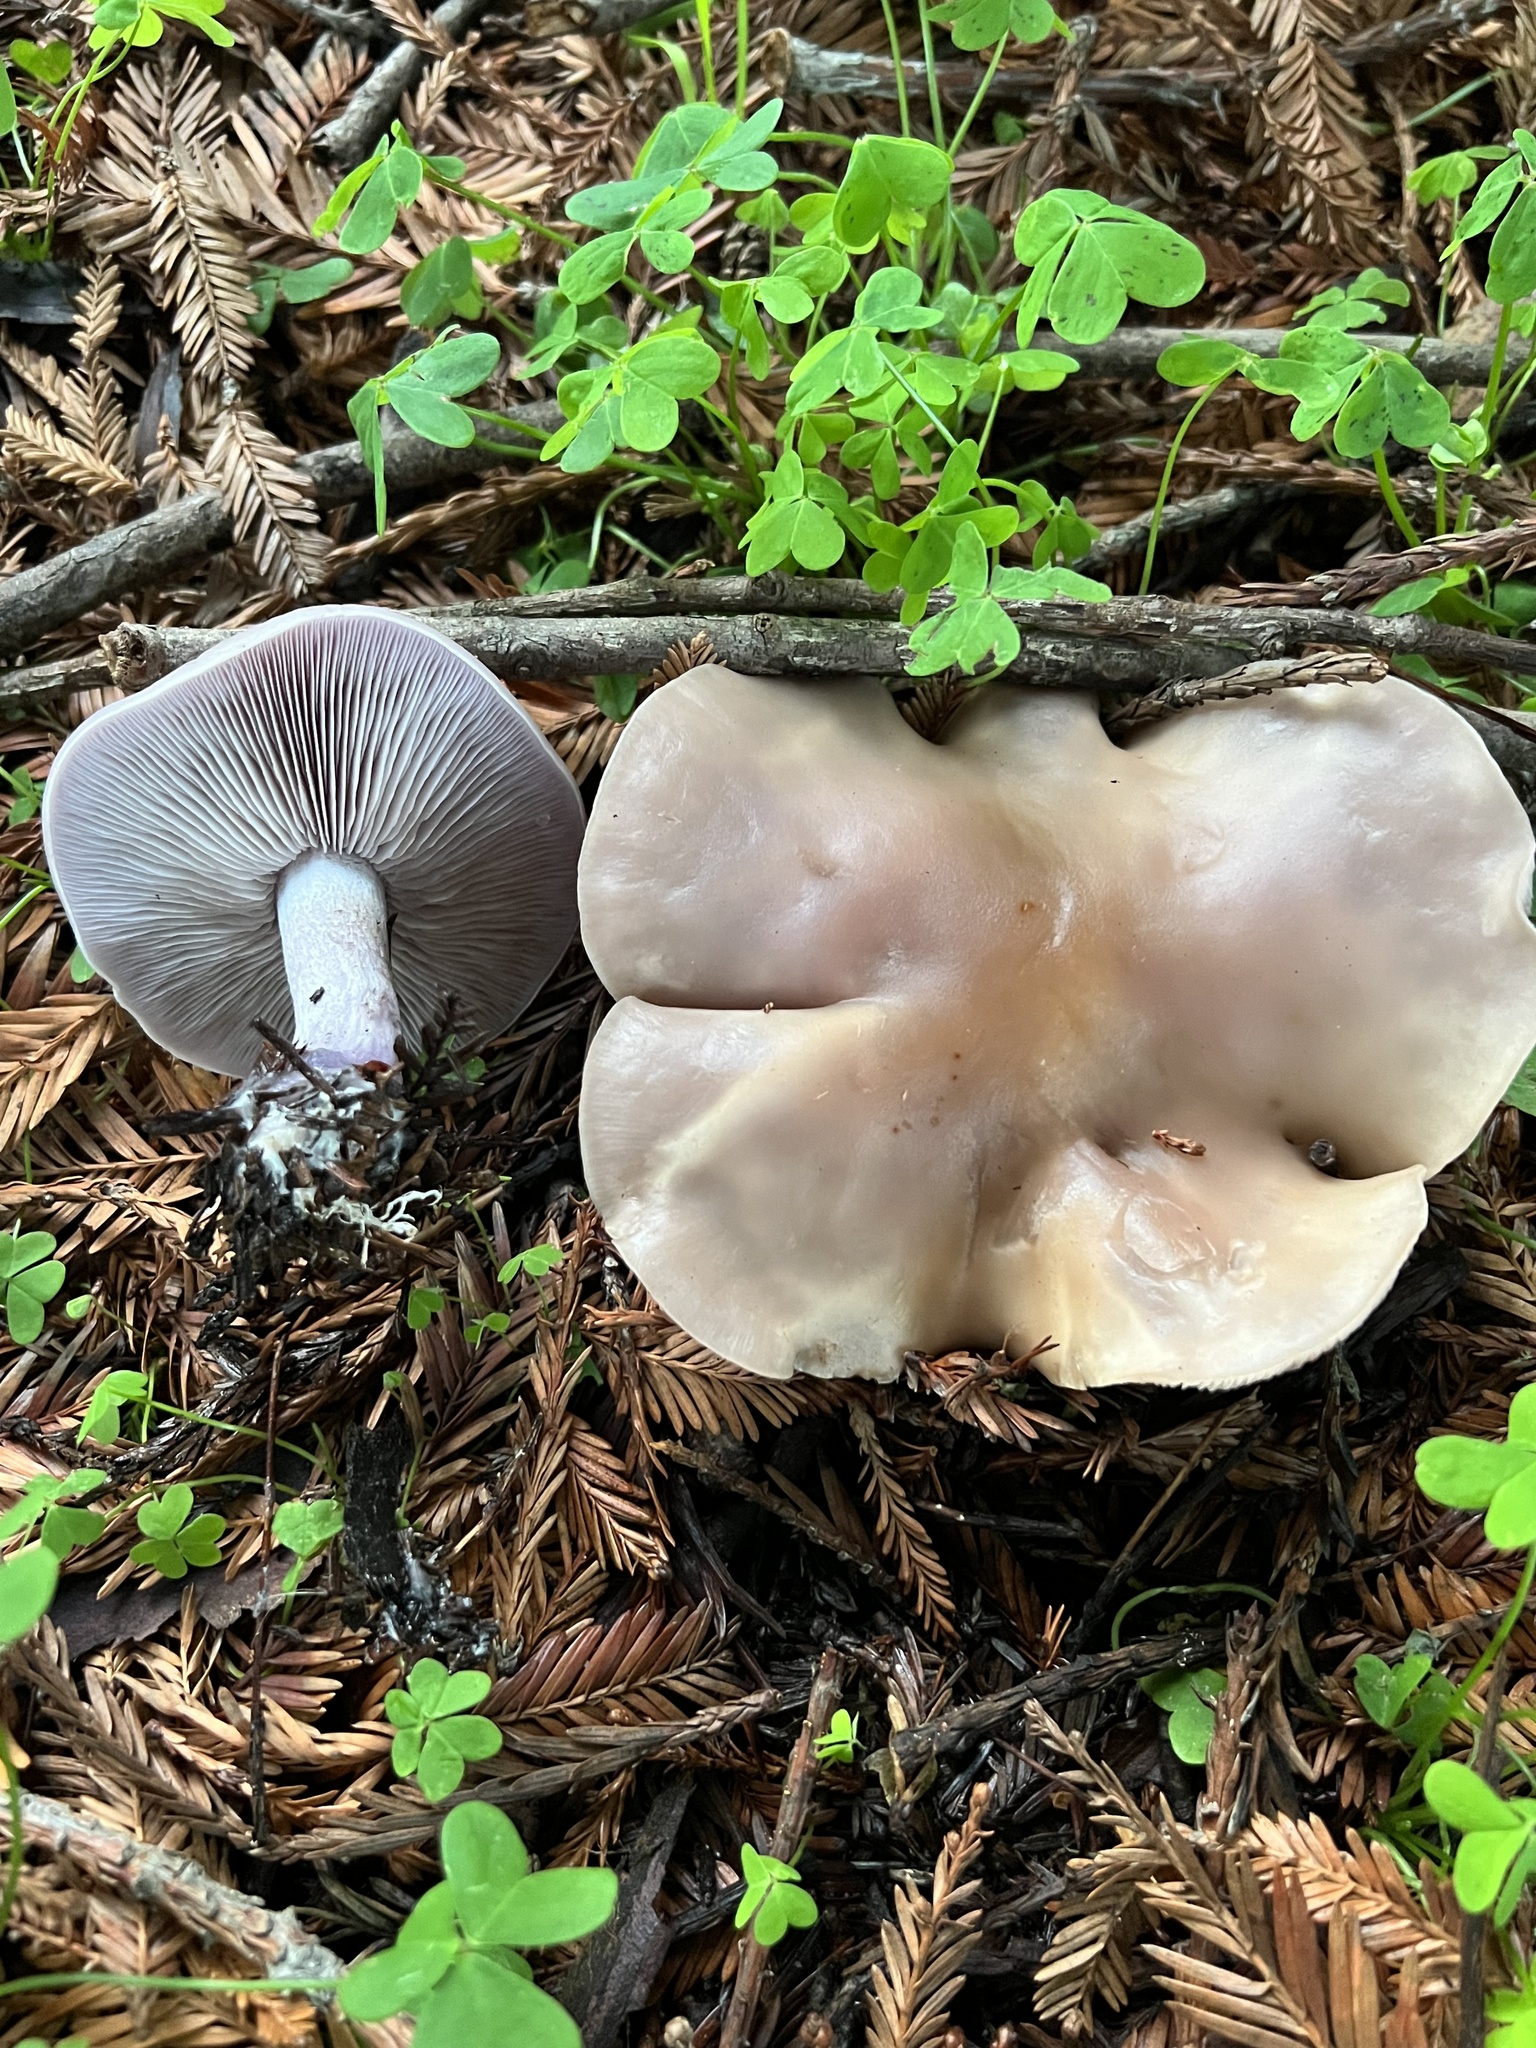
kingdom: Fungi
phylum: Basidiomycota
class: Agaricomycetes
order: Agaricales
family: Tricholomataceae
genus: Collybia
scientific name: Collybia
